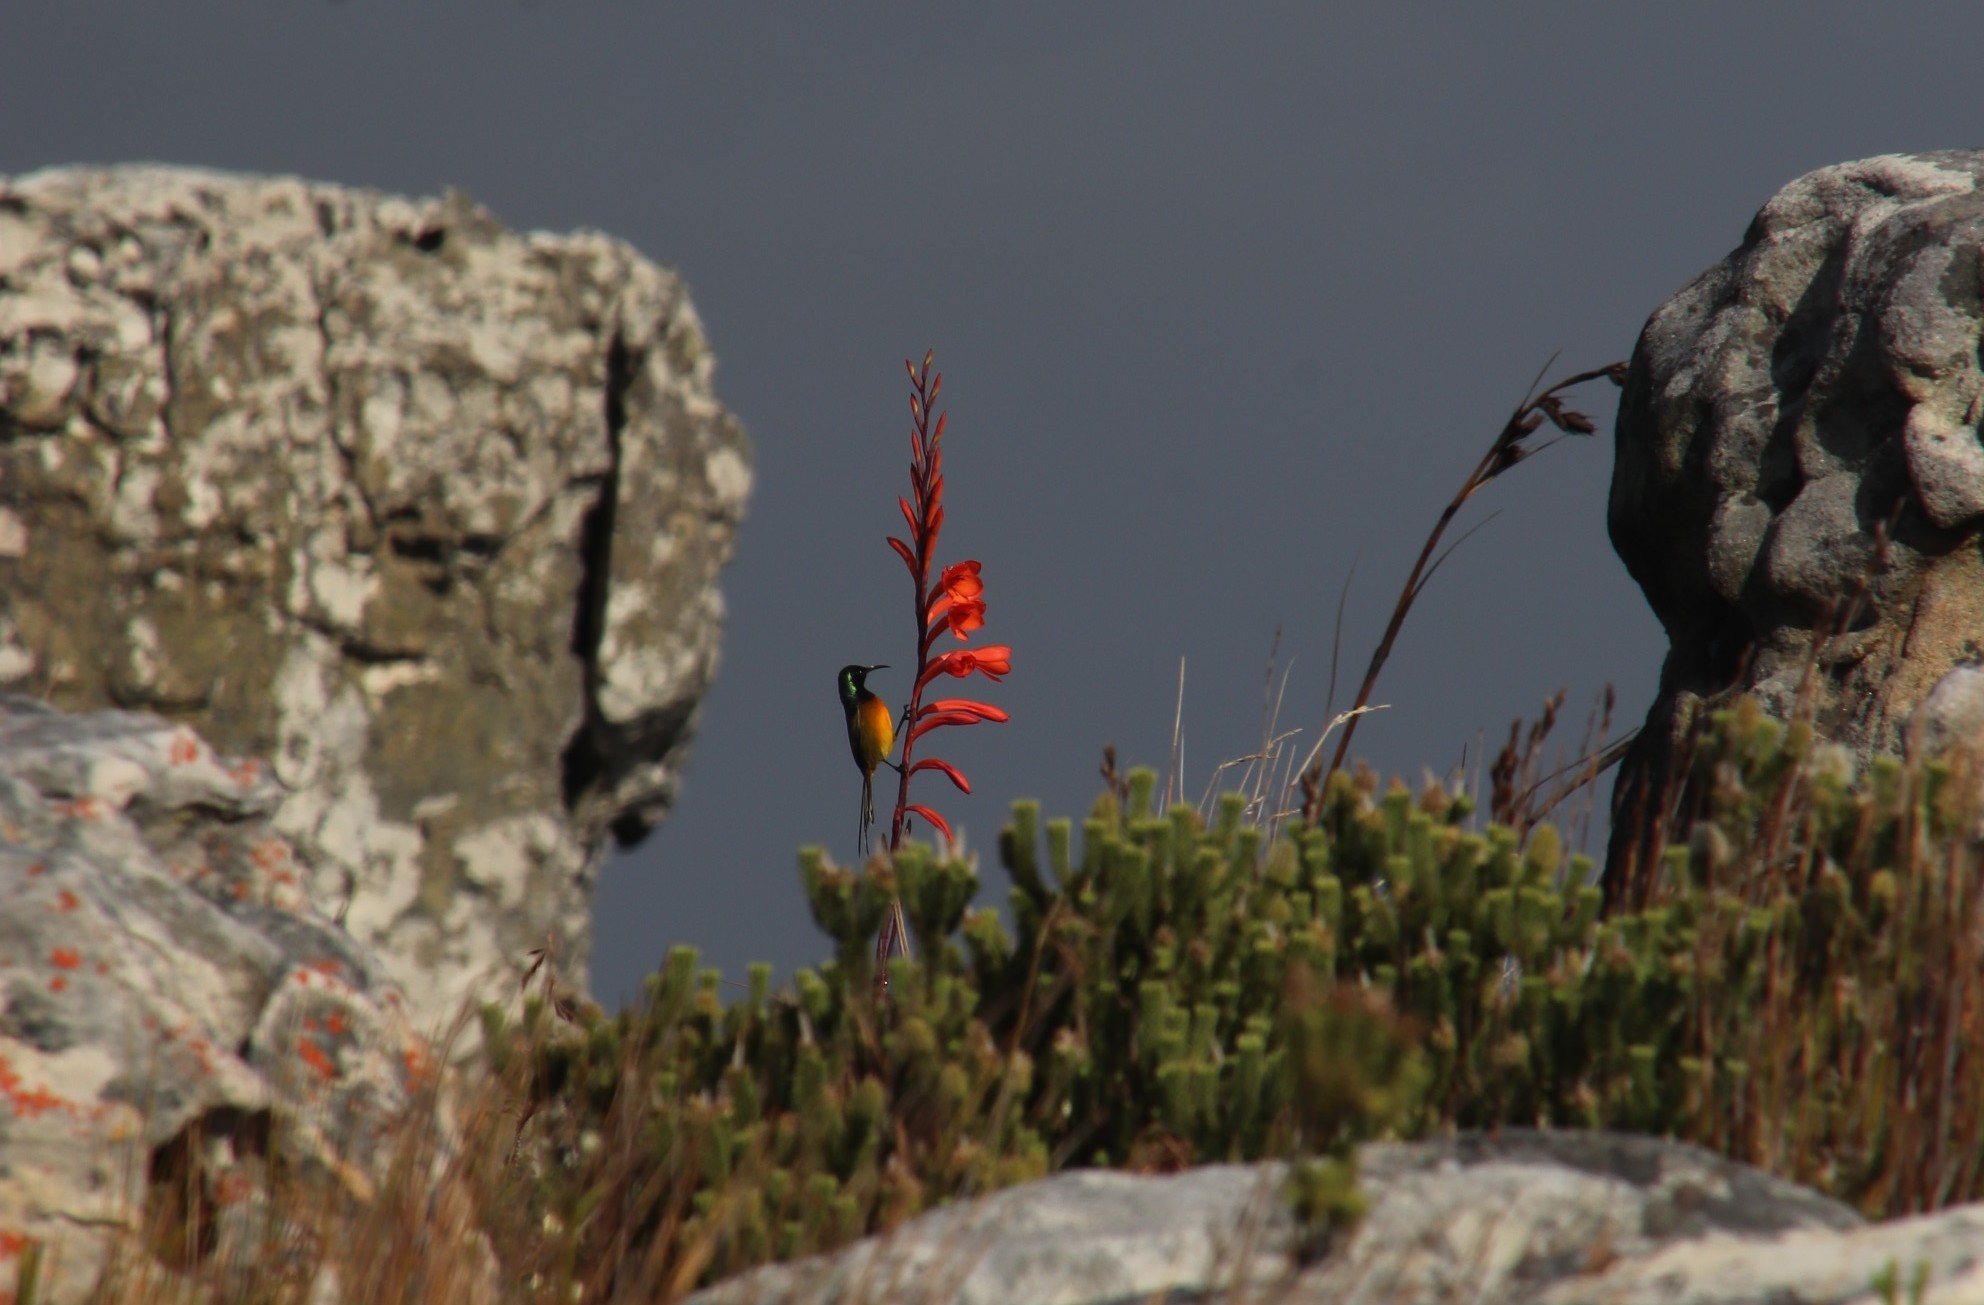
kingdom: Plantae
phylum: Tracheophyta
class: Liliopsida
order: Asparagales
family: Iridaceae
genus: Watsonia
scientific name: Watsonia tabularis
